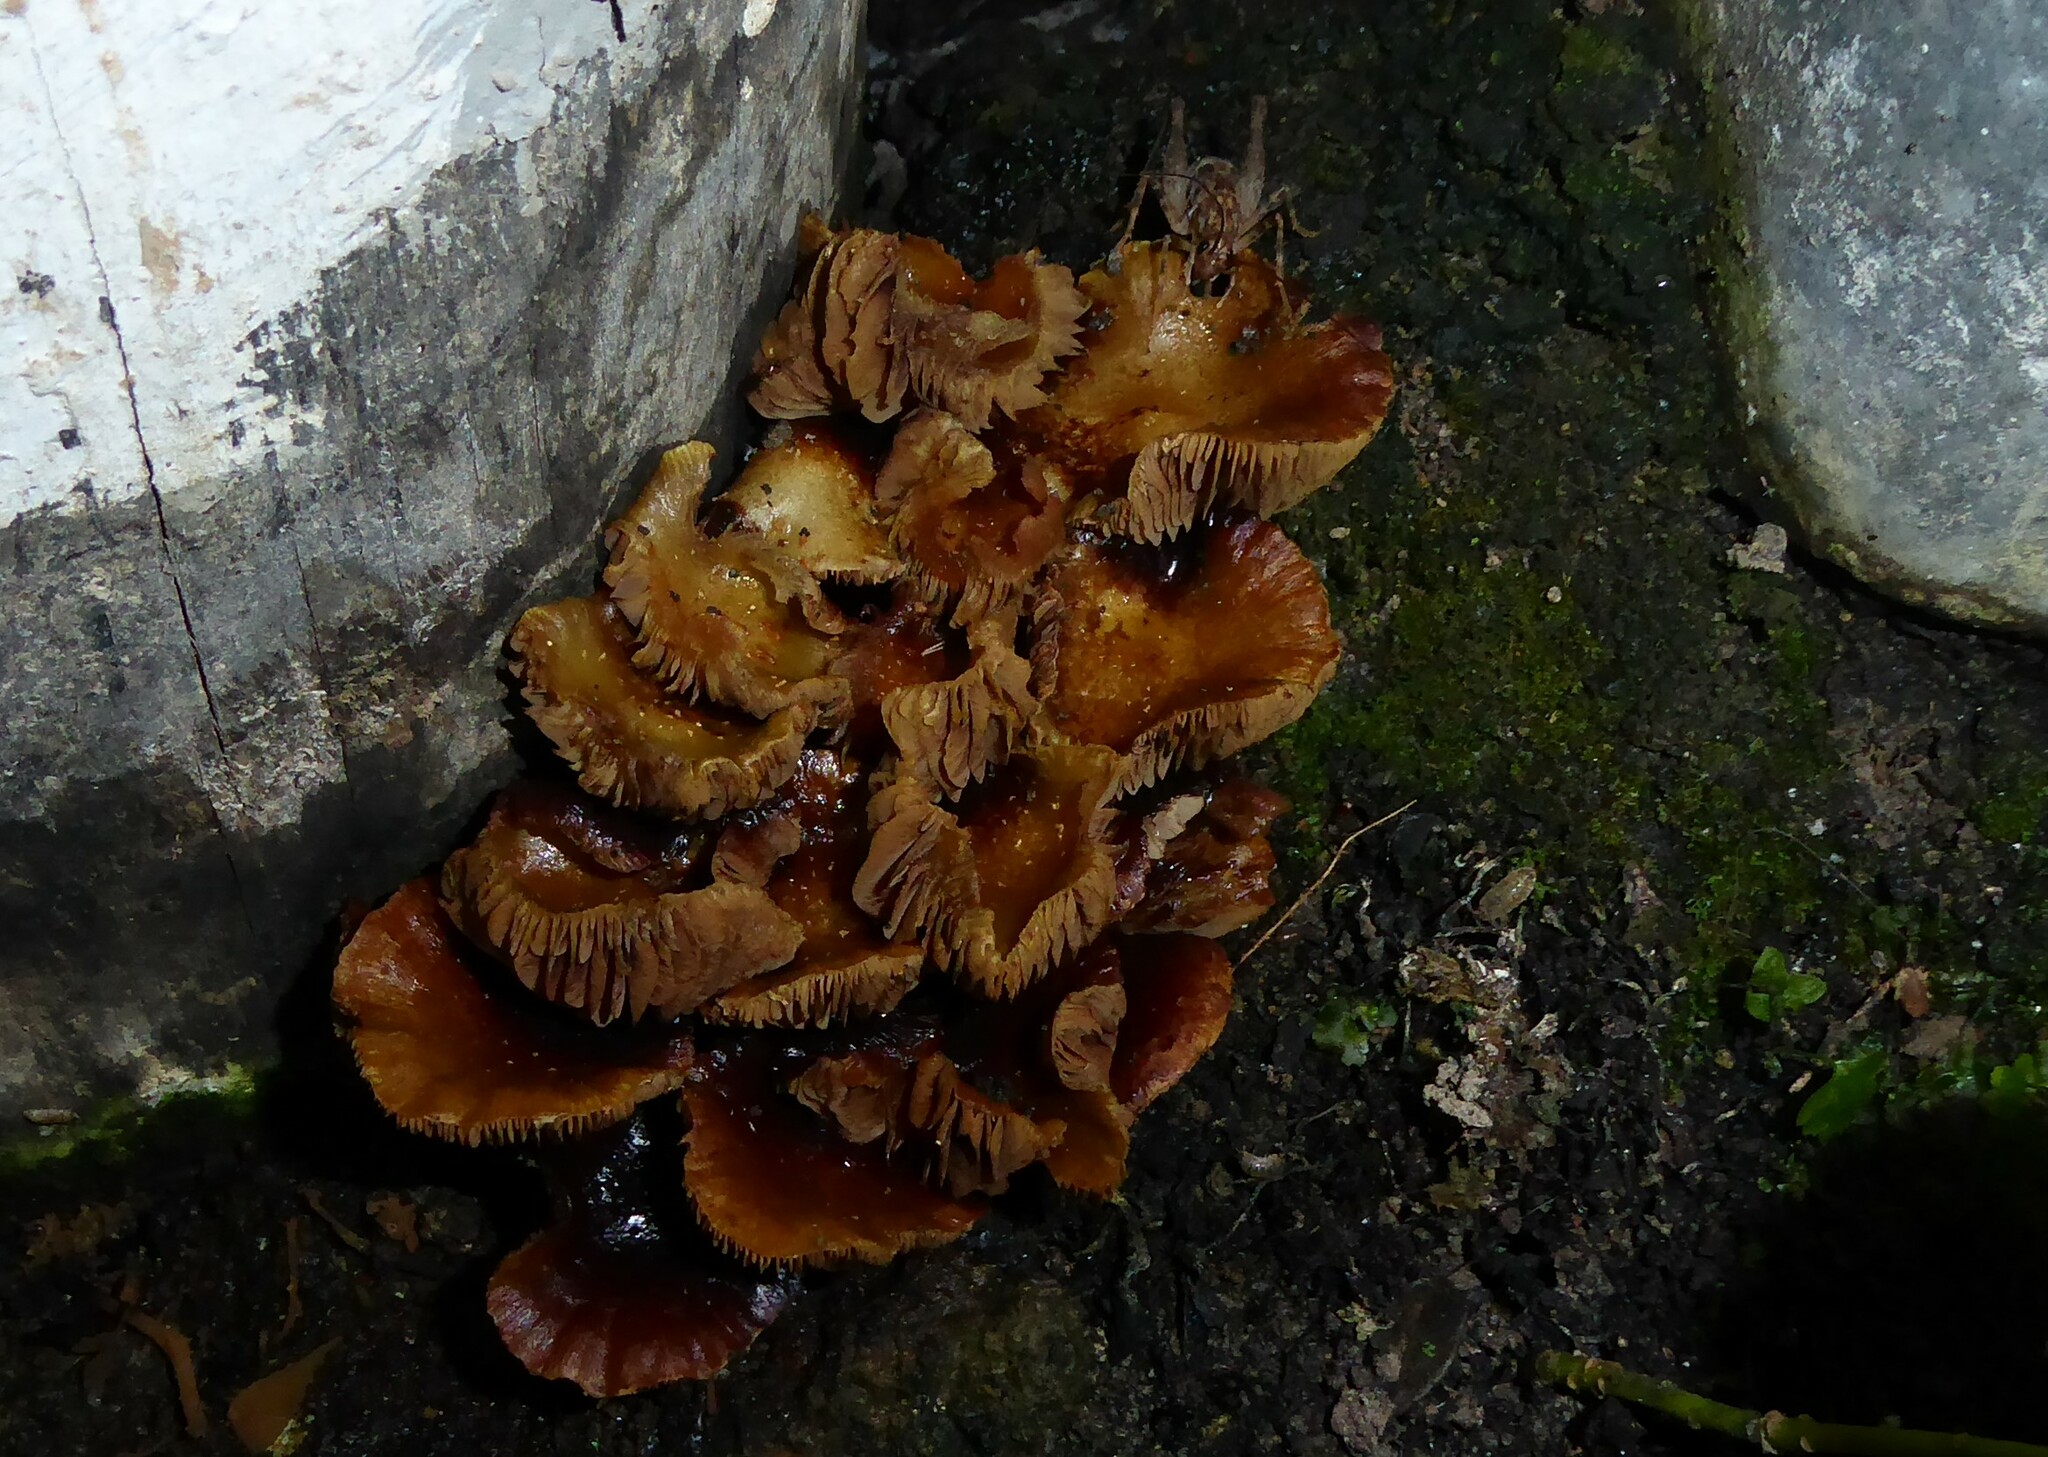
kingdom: Fungi
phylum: Basidiomycota
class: Agaricomycetes
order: Agaricales
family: Physalacriaceae
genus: Flammulina
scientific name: Flammulina velutipes
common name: Velvet shank
